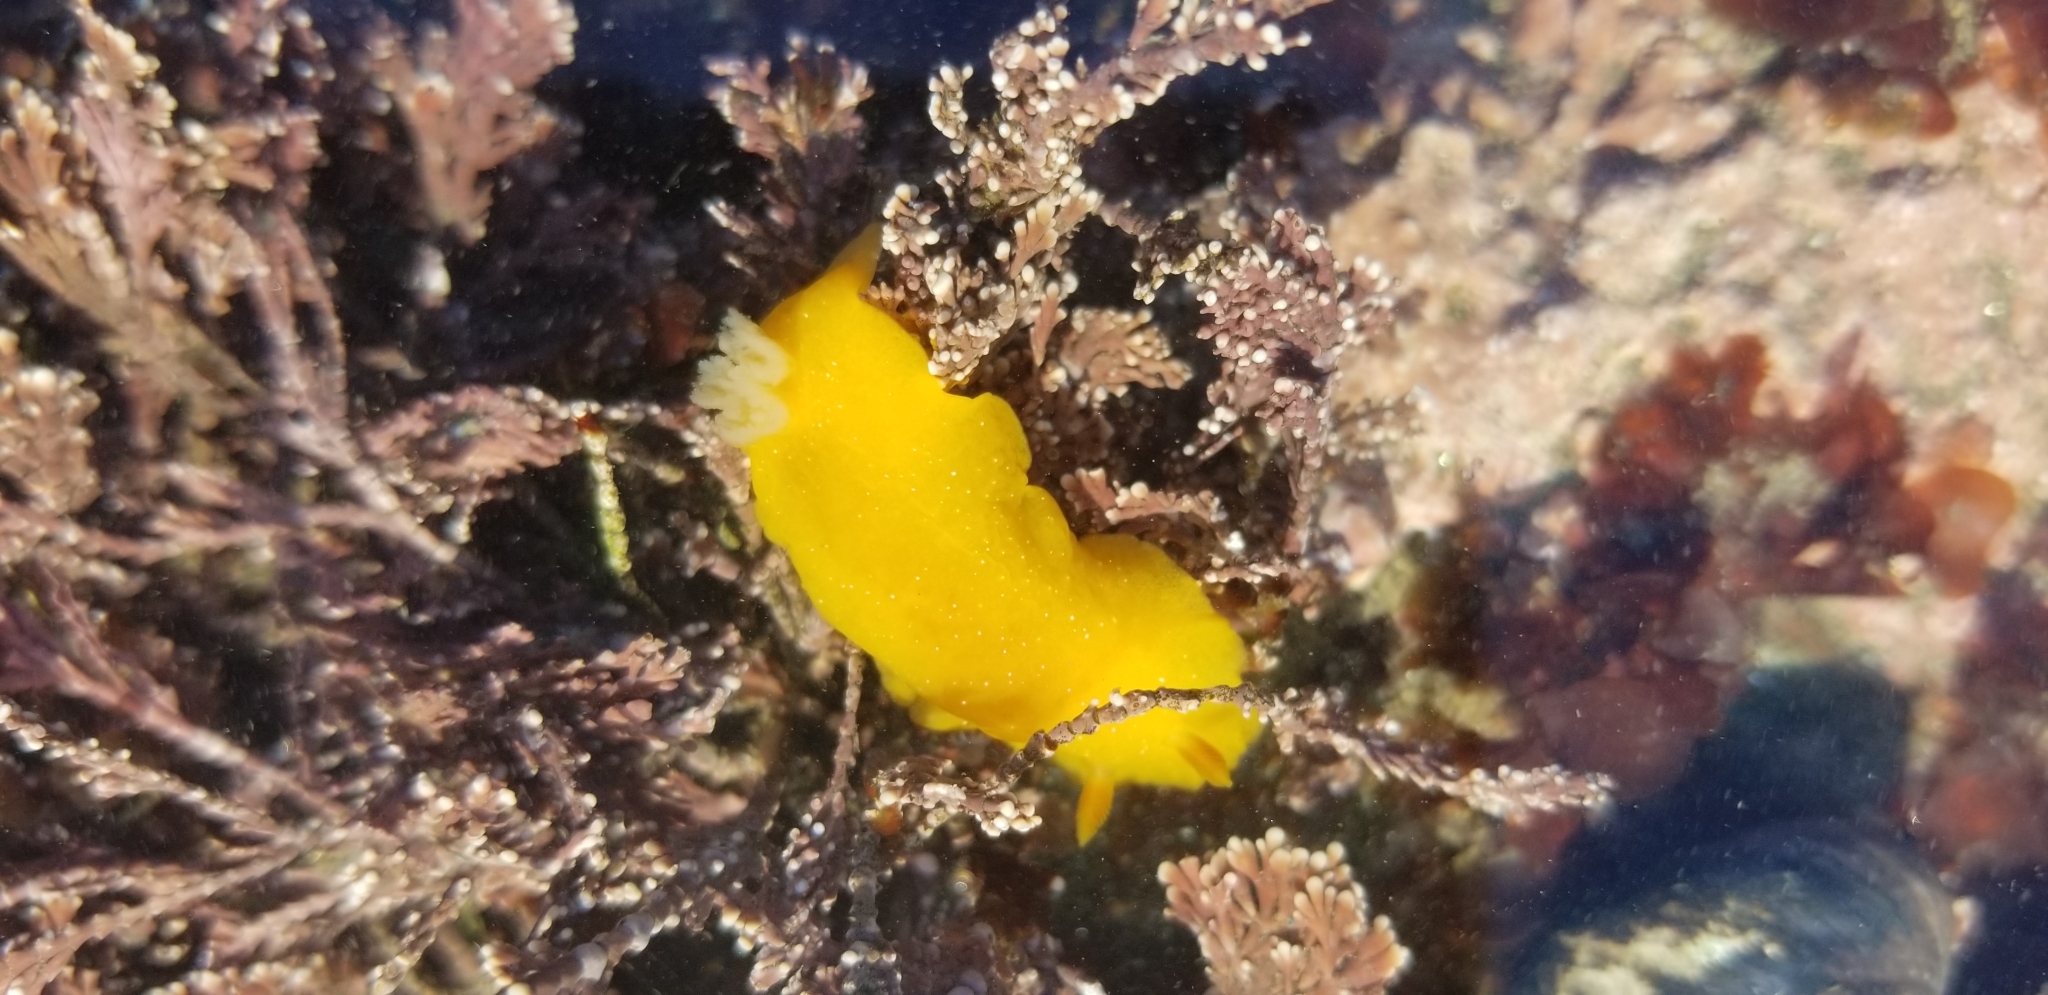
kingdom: Animalia
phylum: Mollusca
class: Gastropoda
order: Nudibranchia
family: Dendrodorididae
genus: Doriopsilla
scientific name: Doriopsilla fulva
